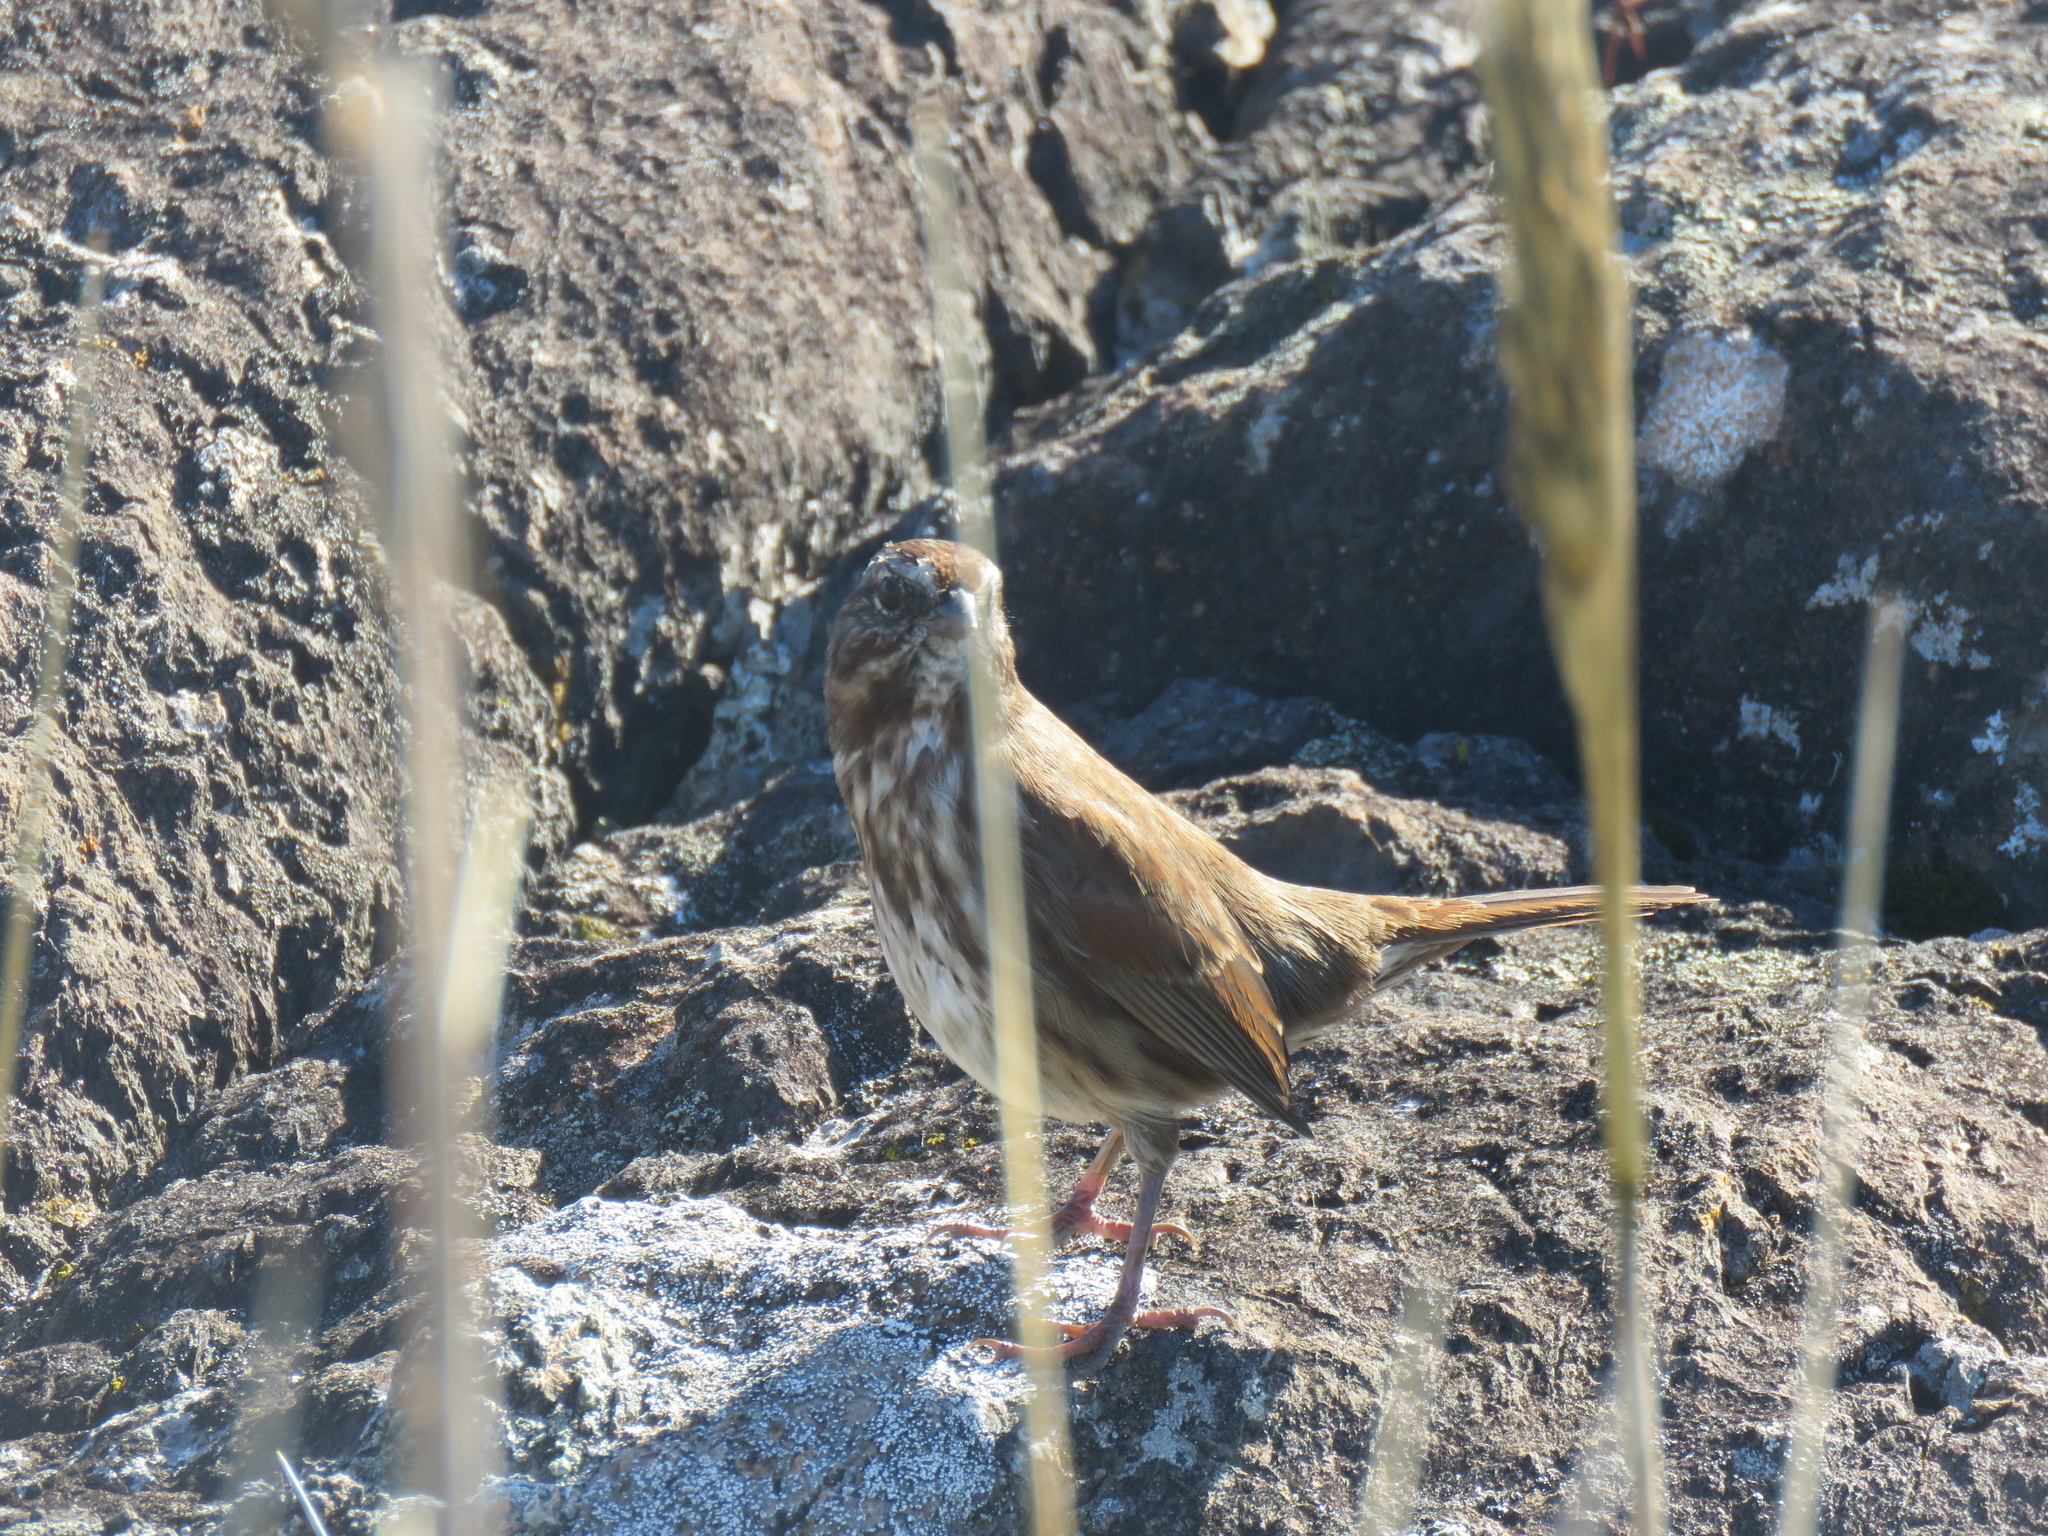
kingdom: Animalia
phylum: Chordata
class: Aves
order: Passeriformes
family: Passerellidae
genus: Melospiza
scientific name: Melospiza melodia
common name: Song sparrow
